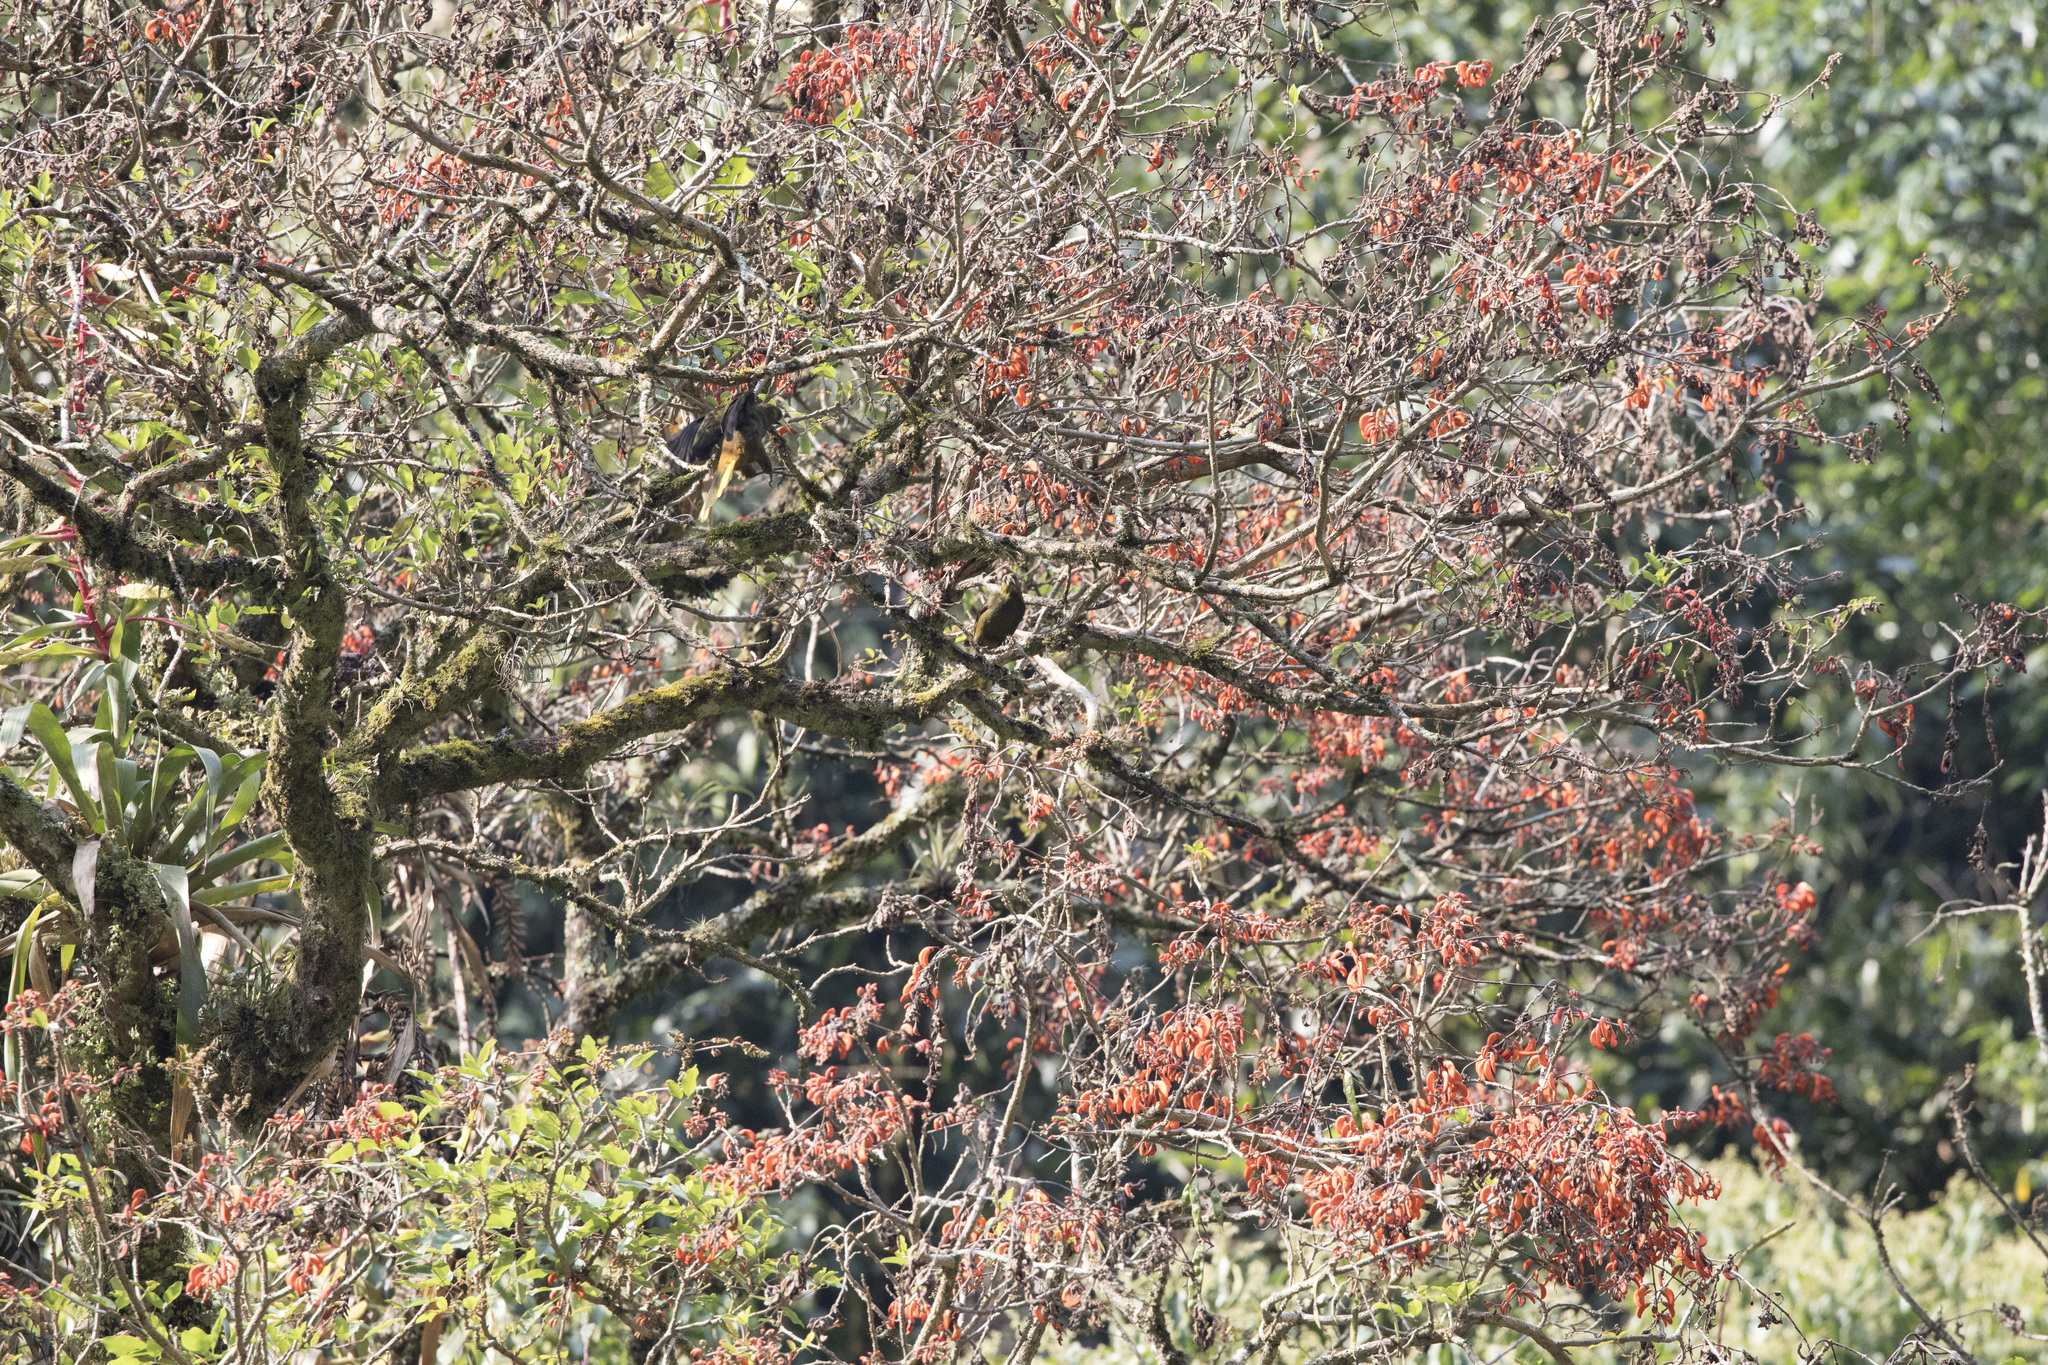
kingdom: Animalia
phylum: Chordata
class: Aves
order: Passeriformes
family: Icteridae
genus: Psarocolius
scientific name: Psarocolius atrovirens
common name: Dusky-green oropendola
